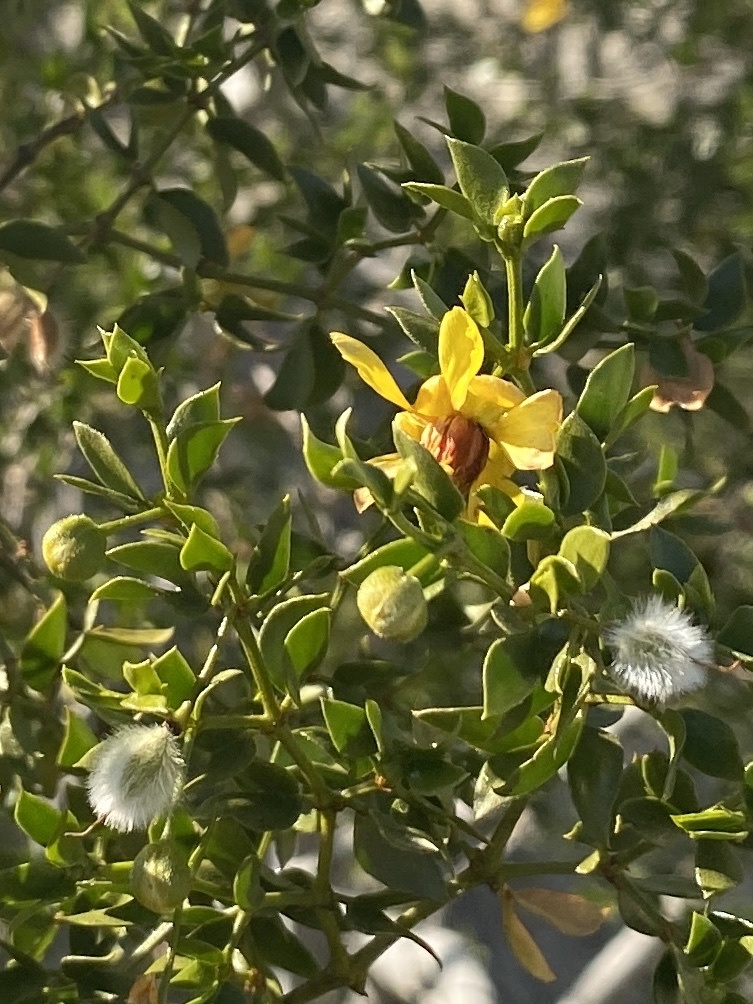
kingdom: Plantae
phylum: Tracheophyta
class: Magnoliopsida
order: Zygophyllales
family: Zygophyllaceae
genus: Larrea
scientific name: Larrea tridentata
